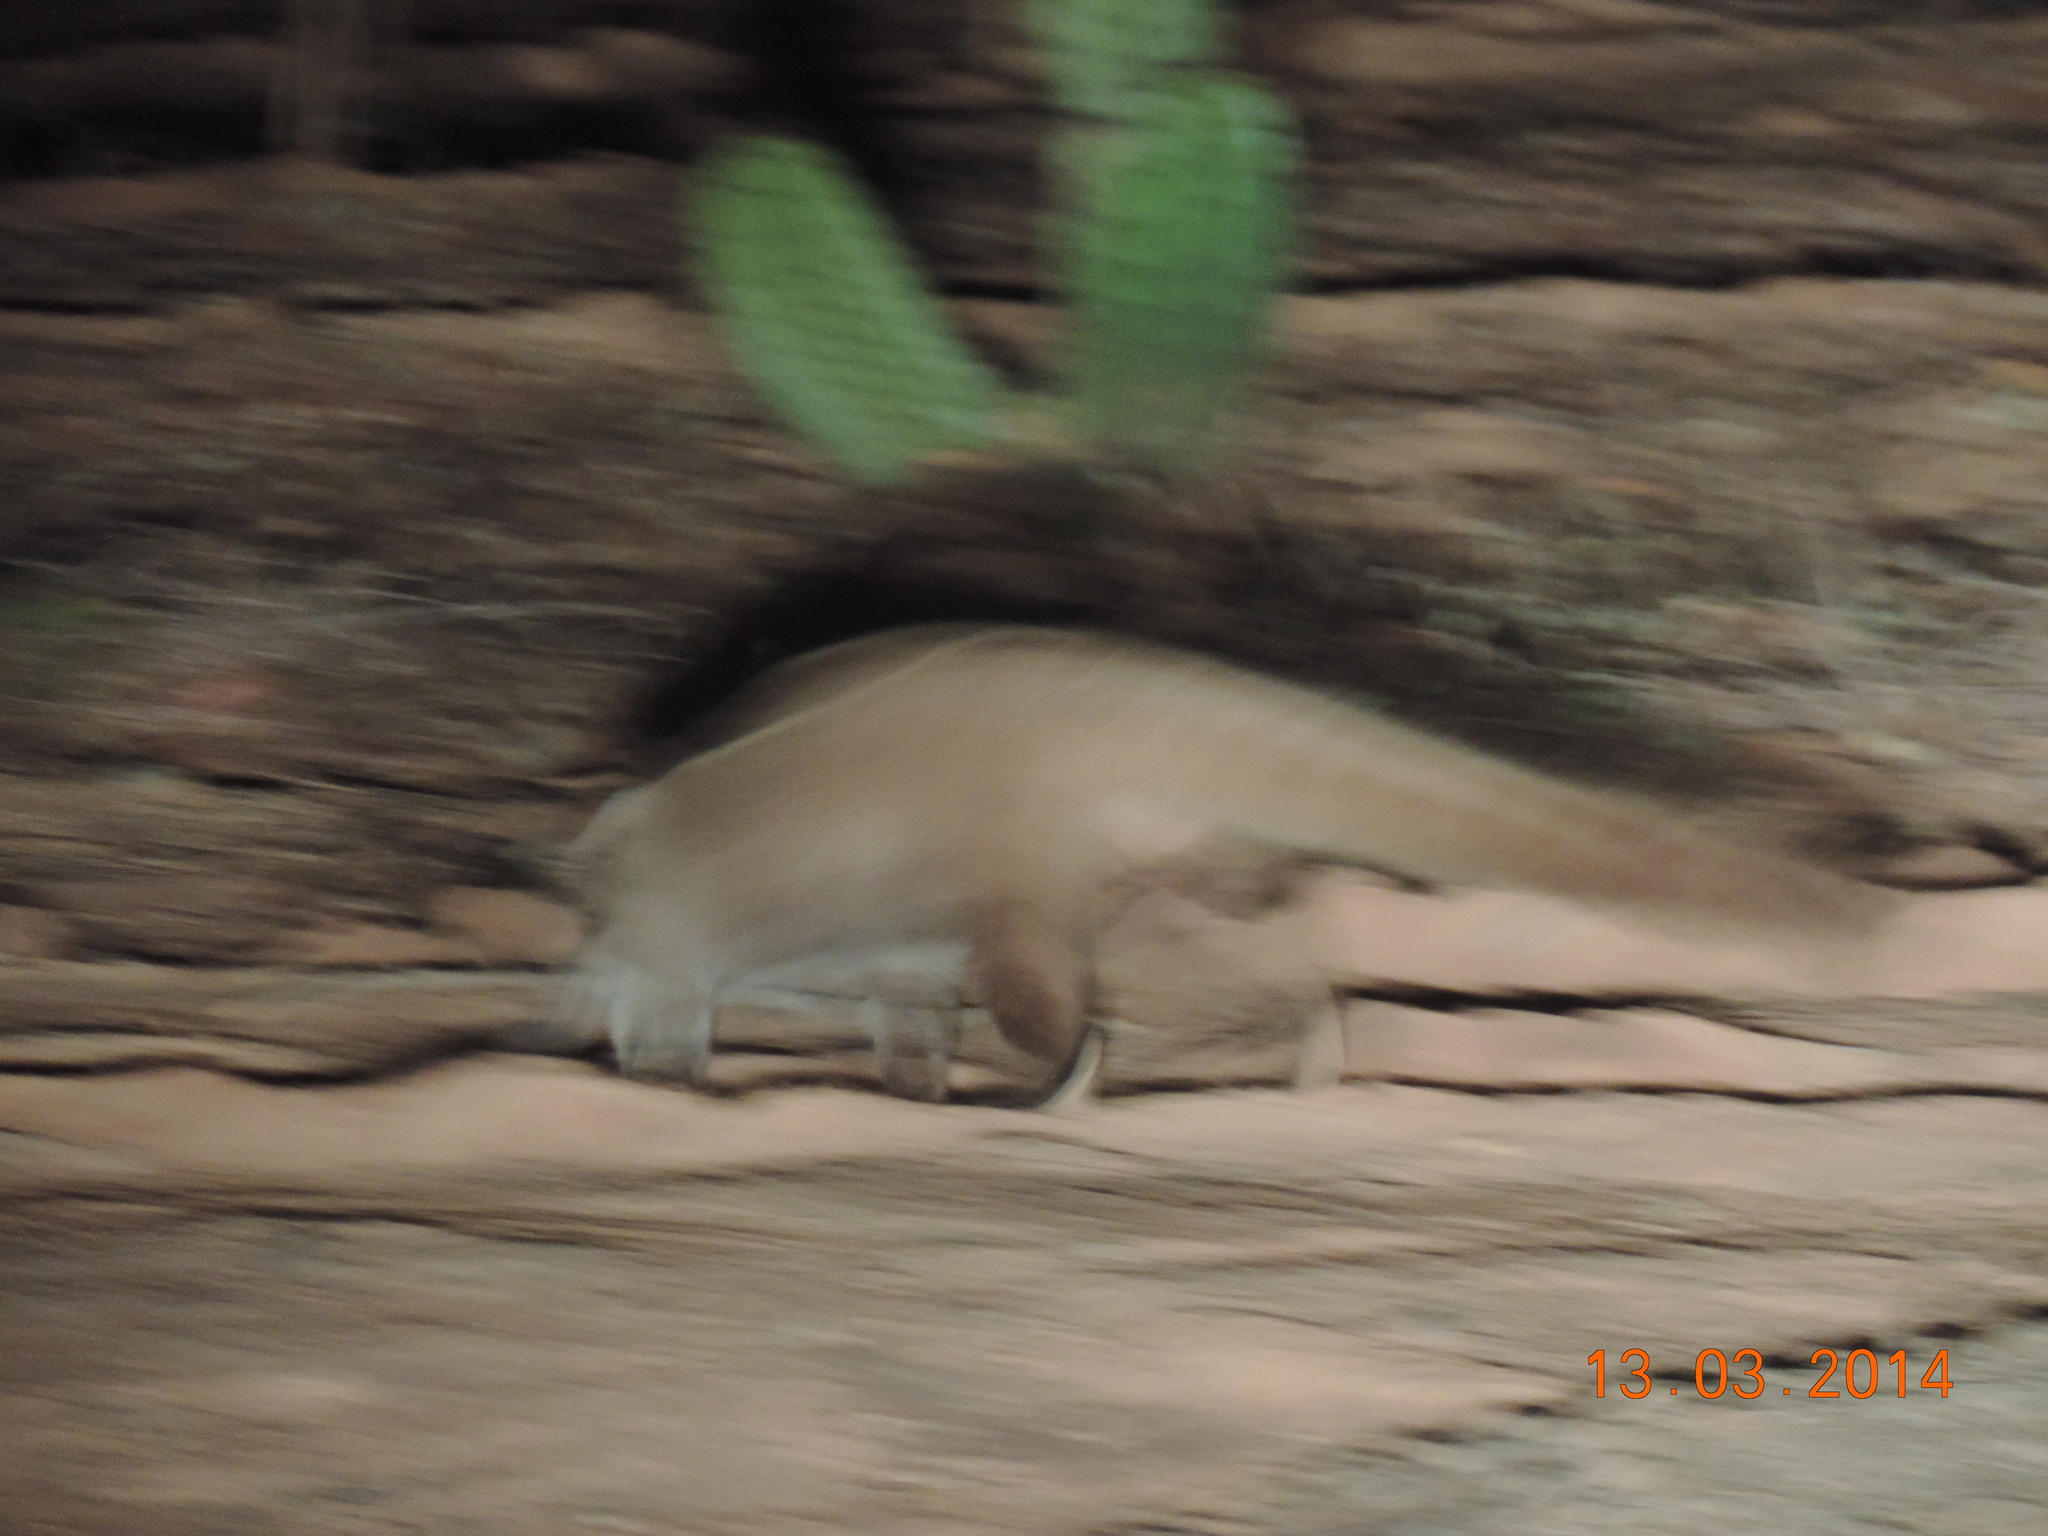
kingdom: Animalia
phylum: Chordata
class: Mammalia
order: Carnivora
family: Procyonidae
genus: Nasua
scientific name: Nasua narica
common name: White-nosed coati
